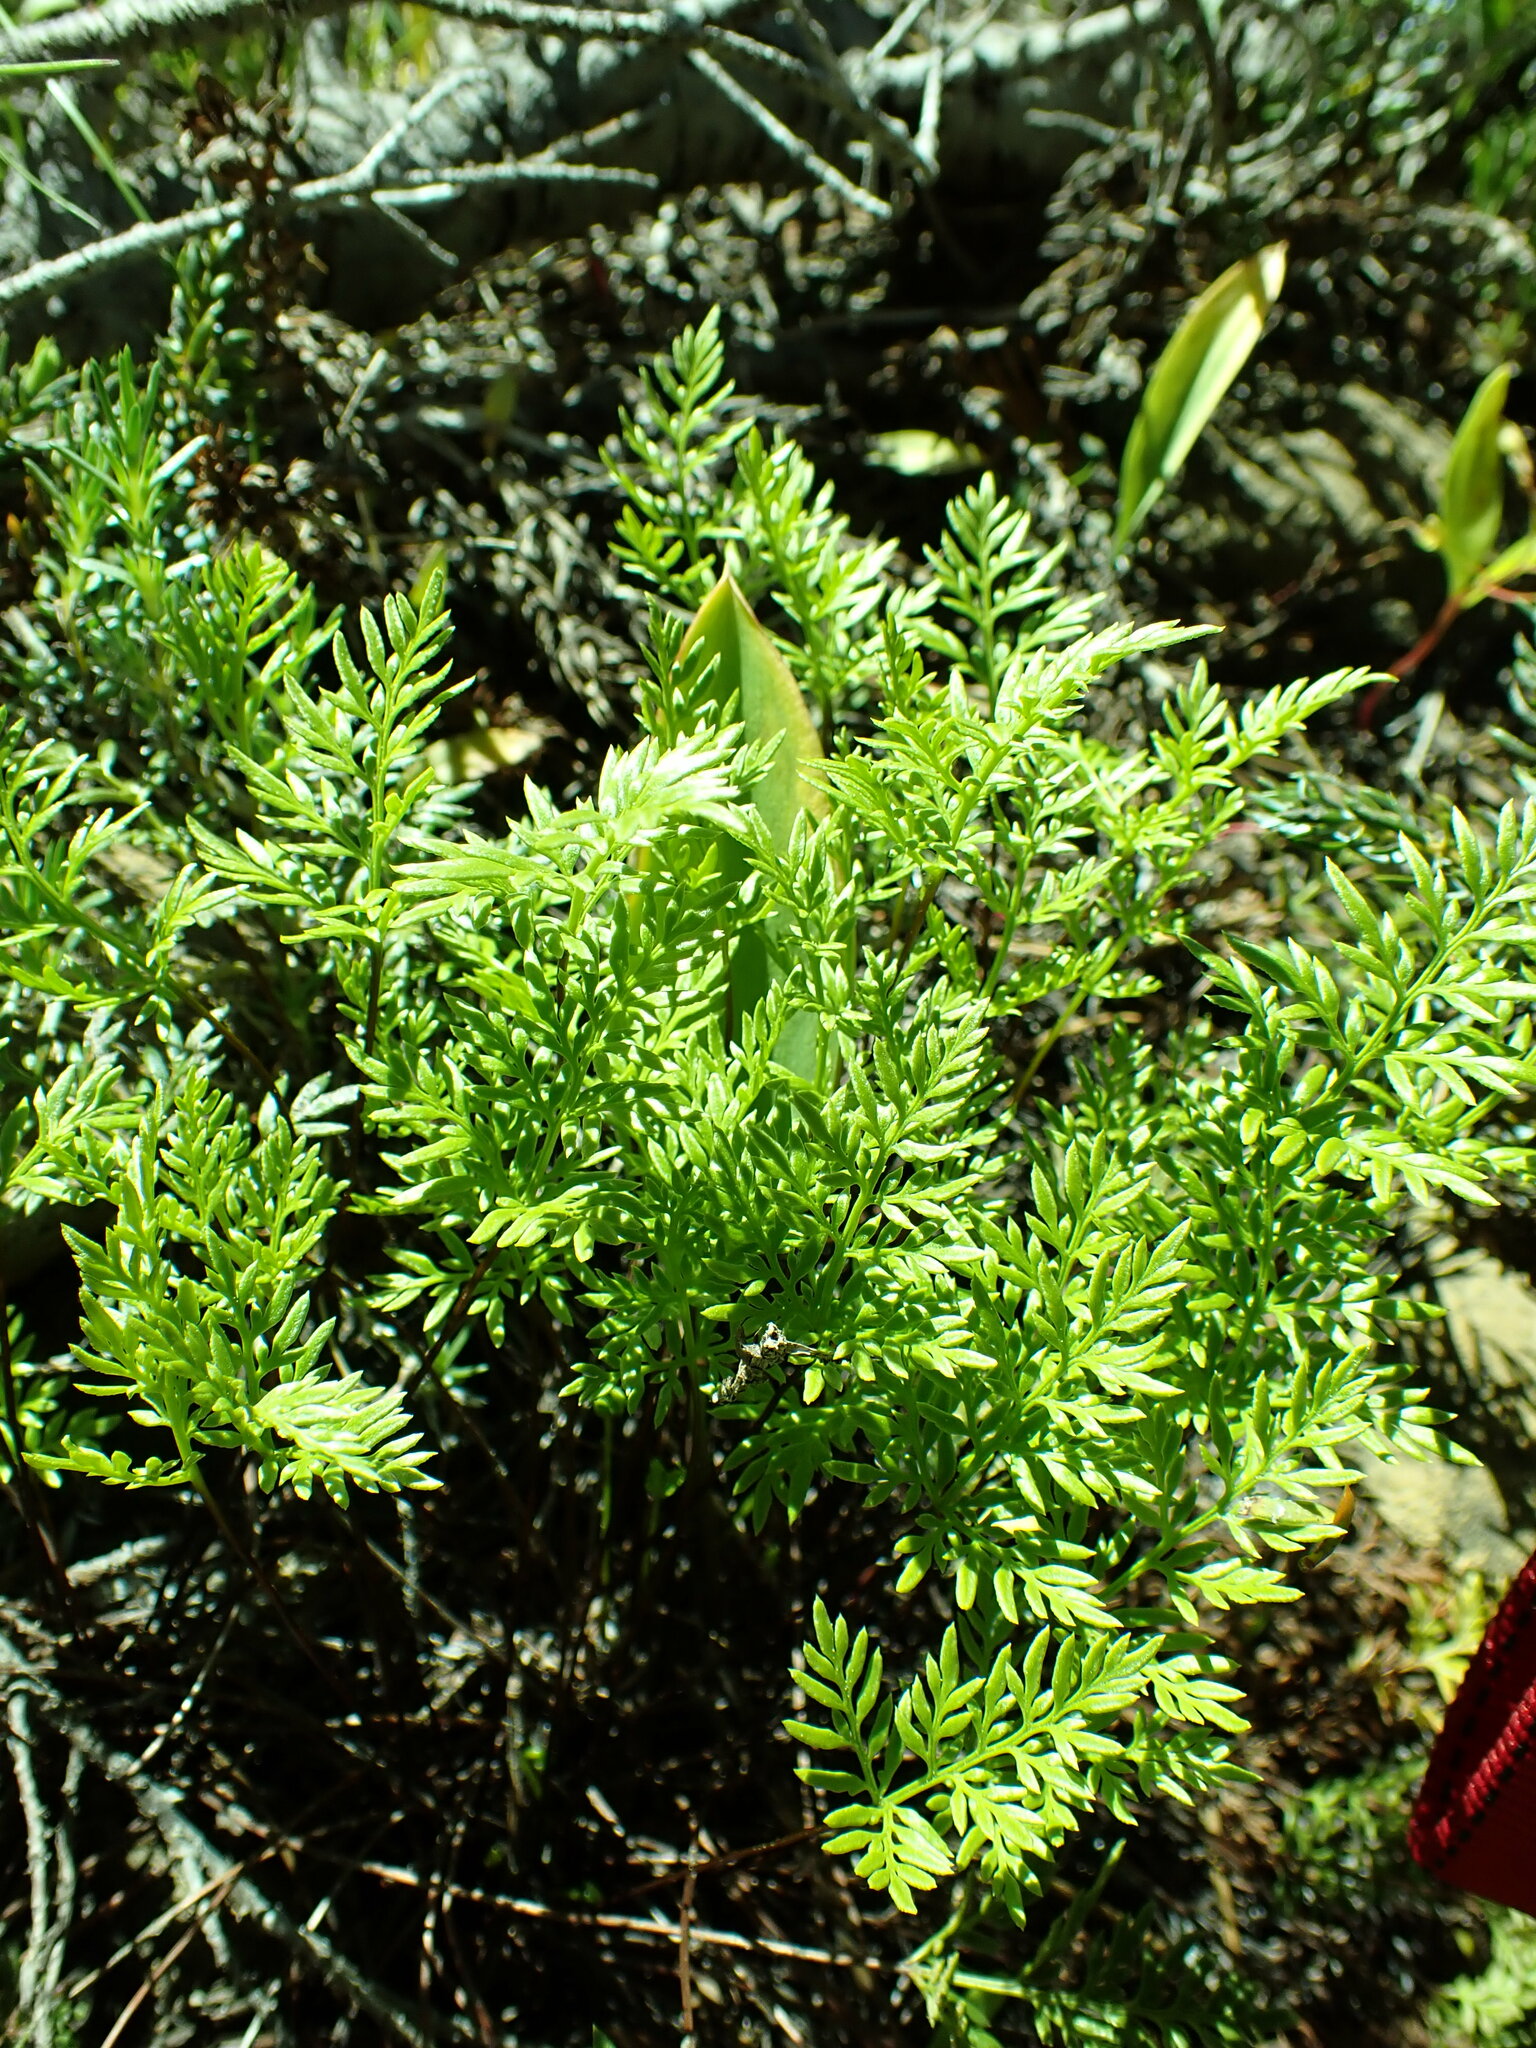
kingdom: Plantae
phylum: Tracheophyta
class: Polypodiopsida
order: Polypodiales
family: Pteridaceae
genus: Aspidotis
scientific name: Aspidotis densa
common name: Indian's dream
